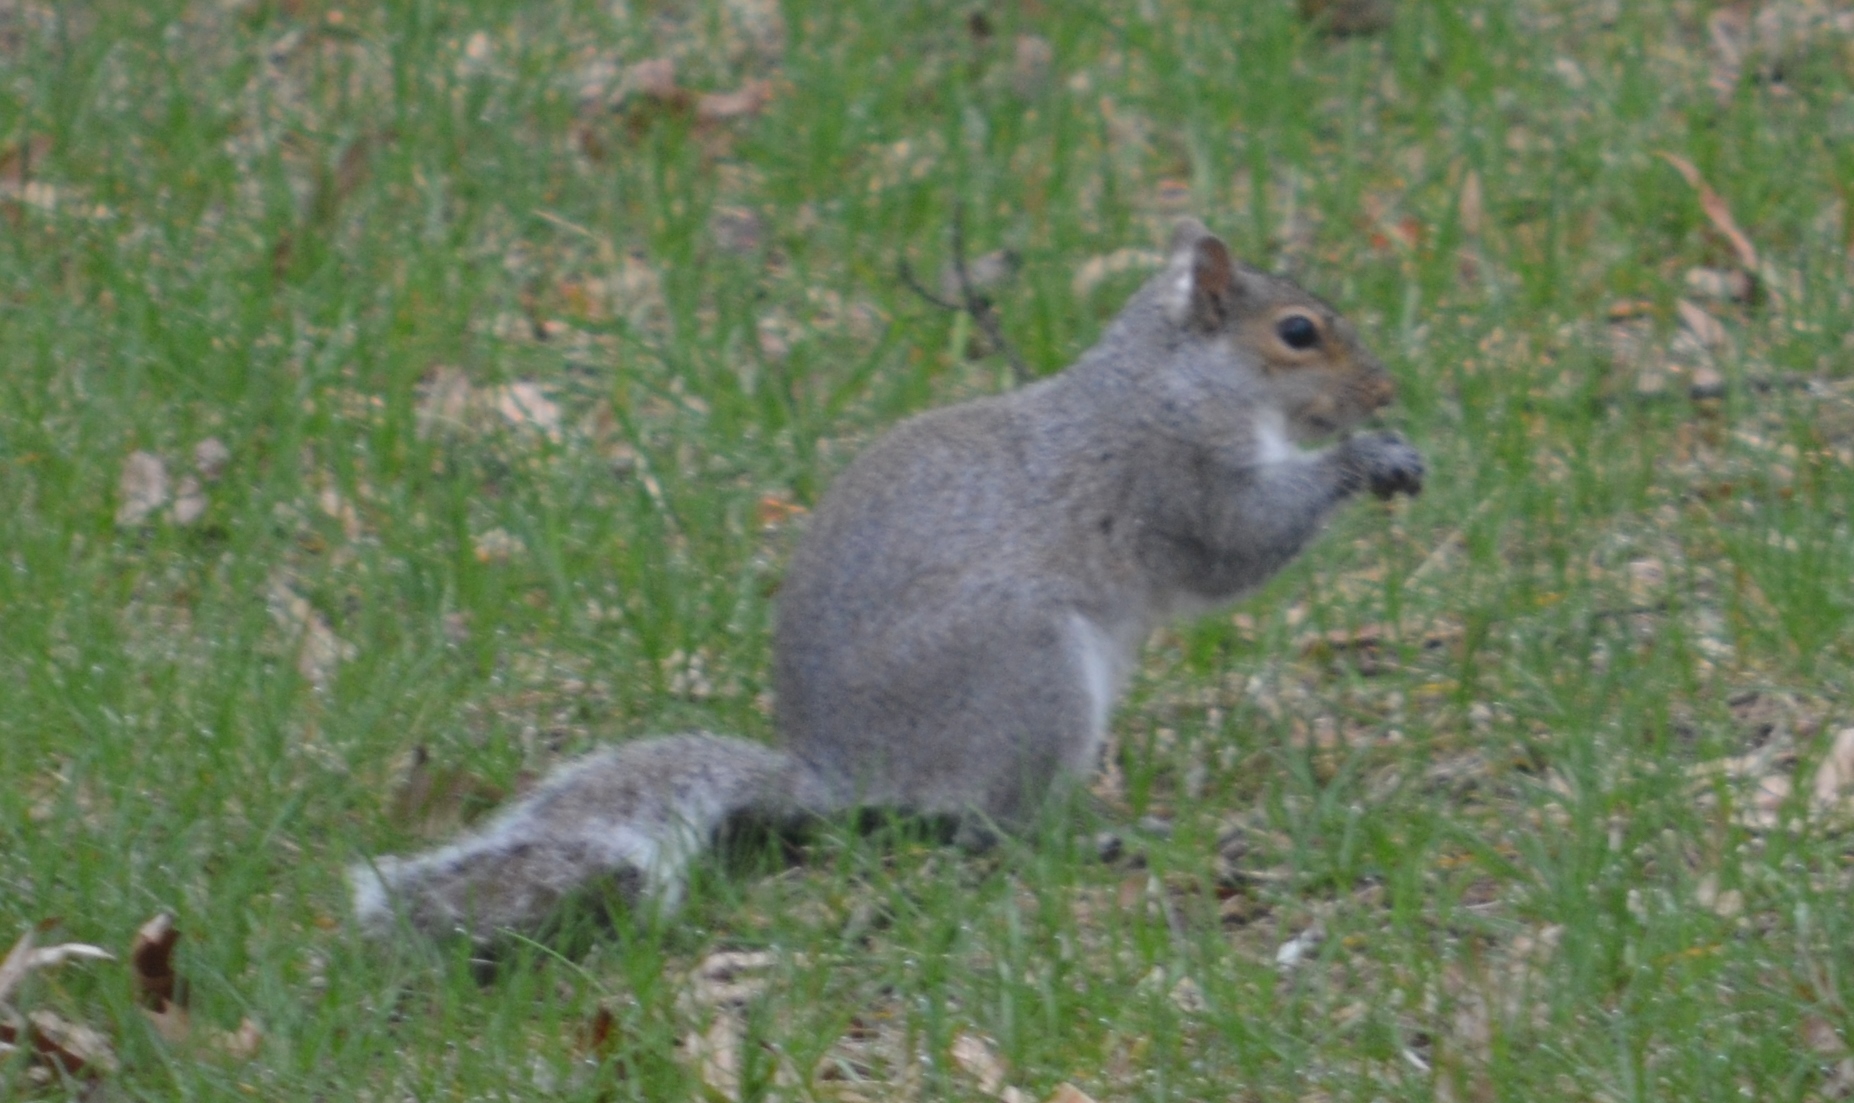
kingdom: Animalia
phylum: Chordata
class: Mammalia
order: Rodentia
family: Sciuridae
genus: Sciurus
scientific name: Sciurus carolinensis
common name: Eastern gray squirrel
